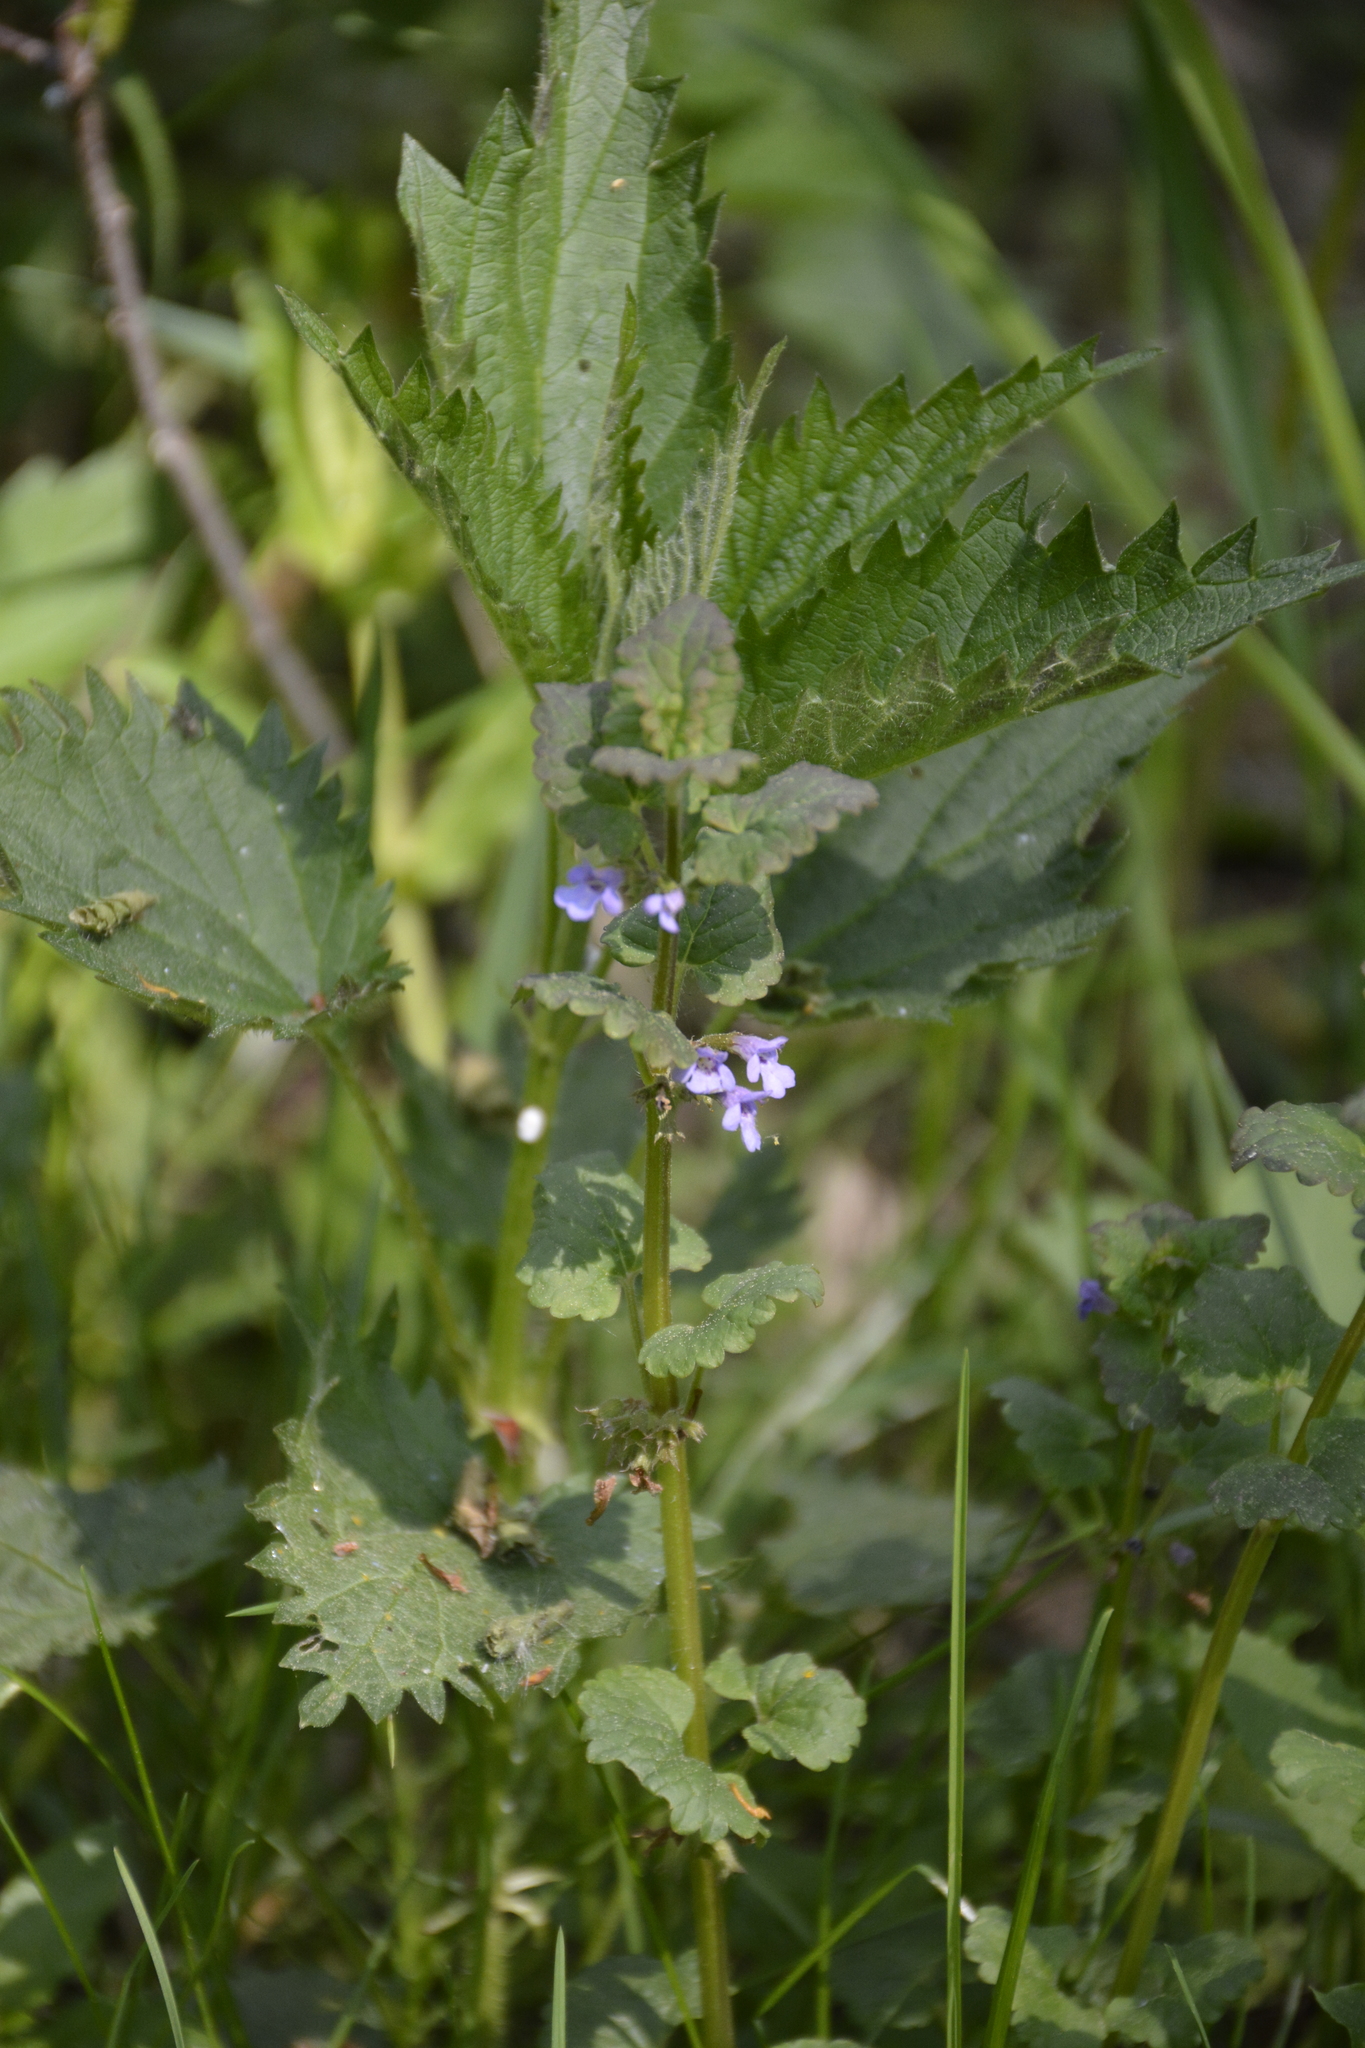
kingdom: Plantae
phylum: Tracheophyta
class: Magnoliopsida
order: Lamiales
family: Lamiaceae
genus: Glechoma
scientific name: Glechoma hederacea
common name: Ground ivy
